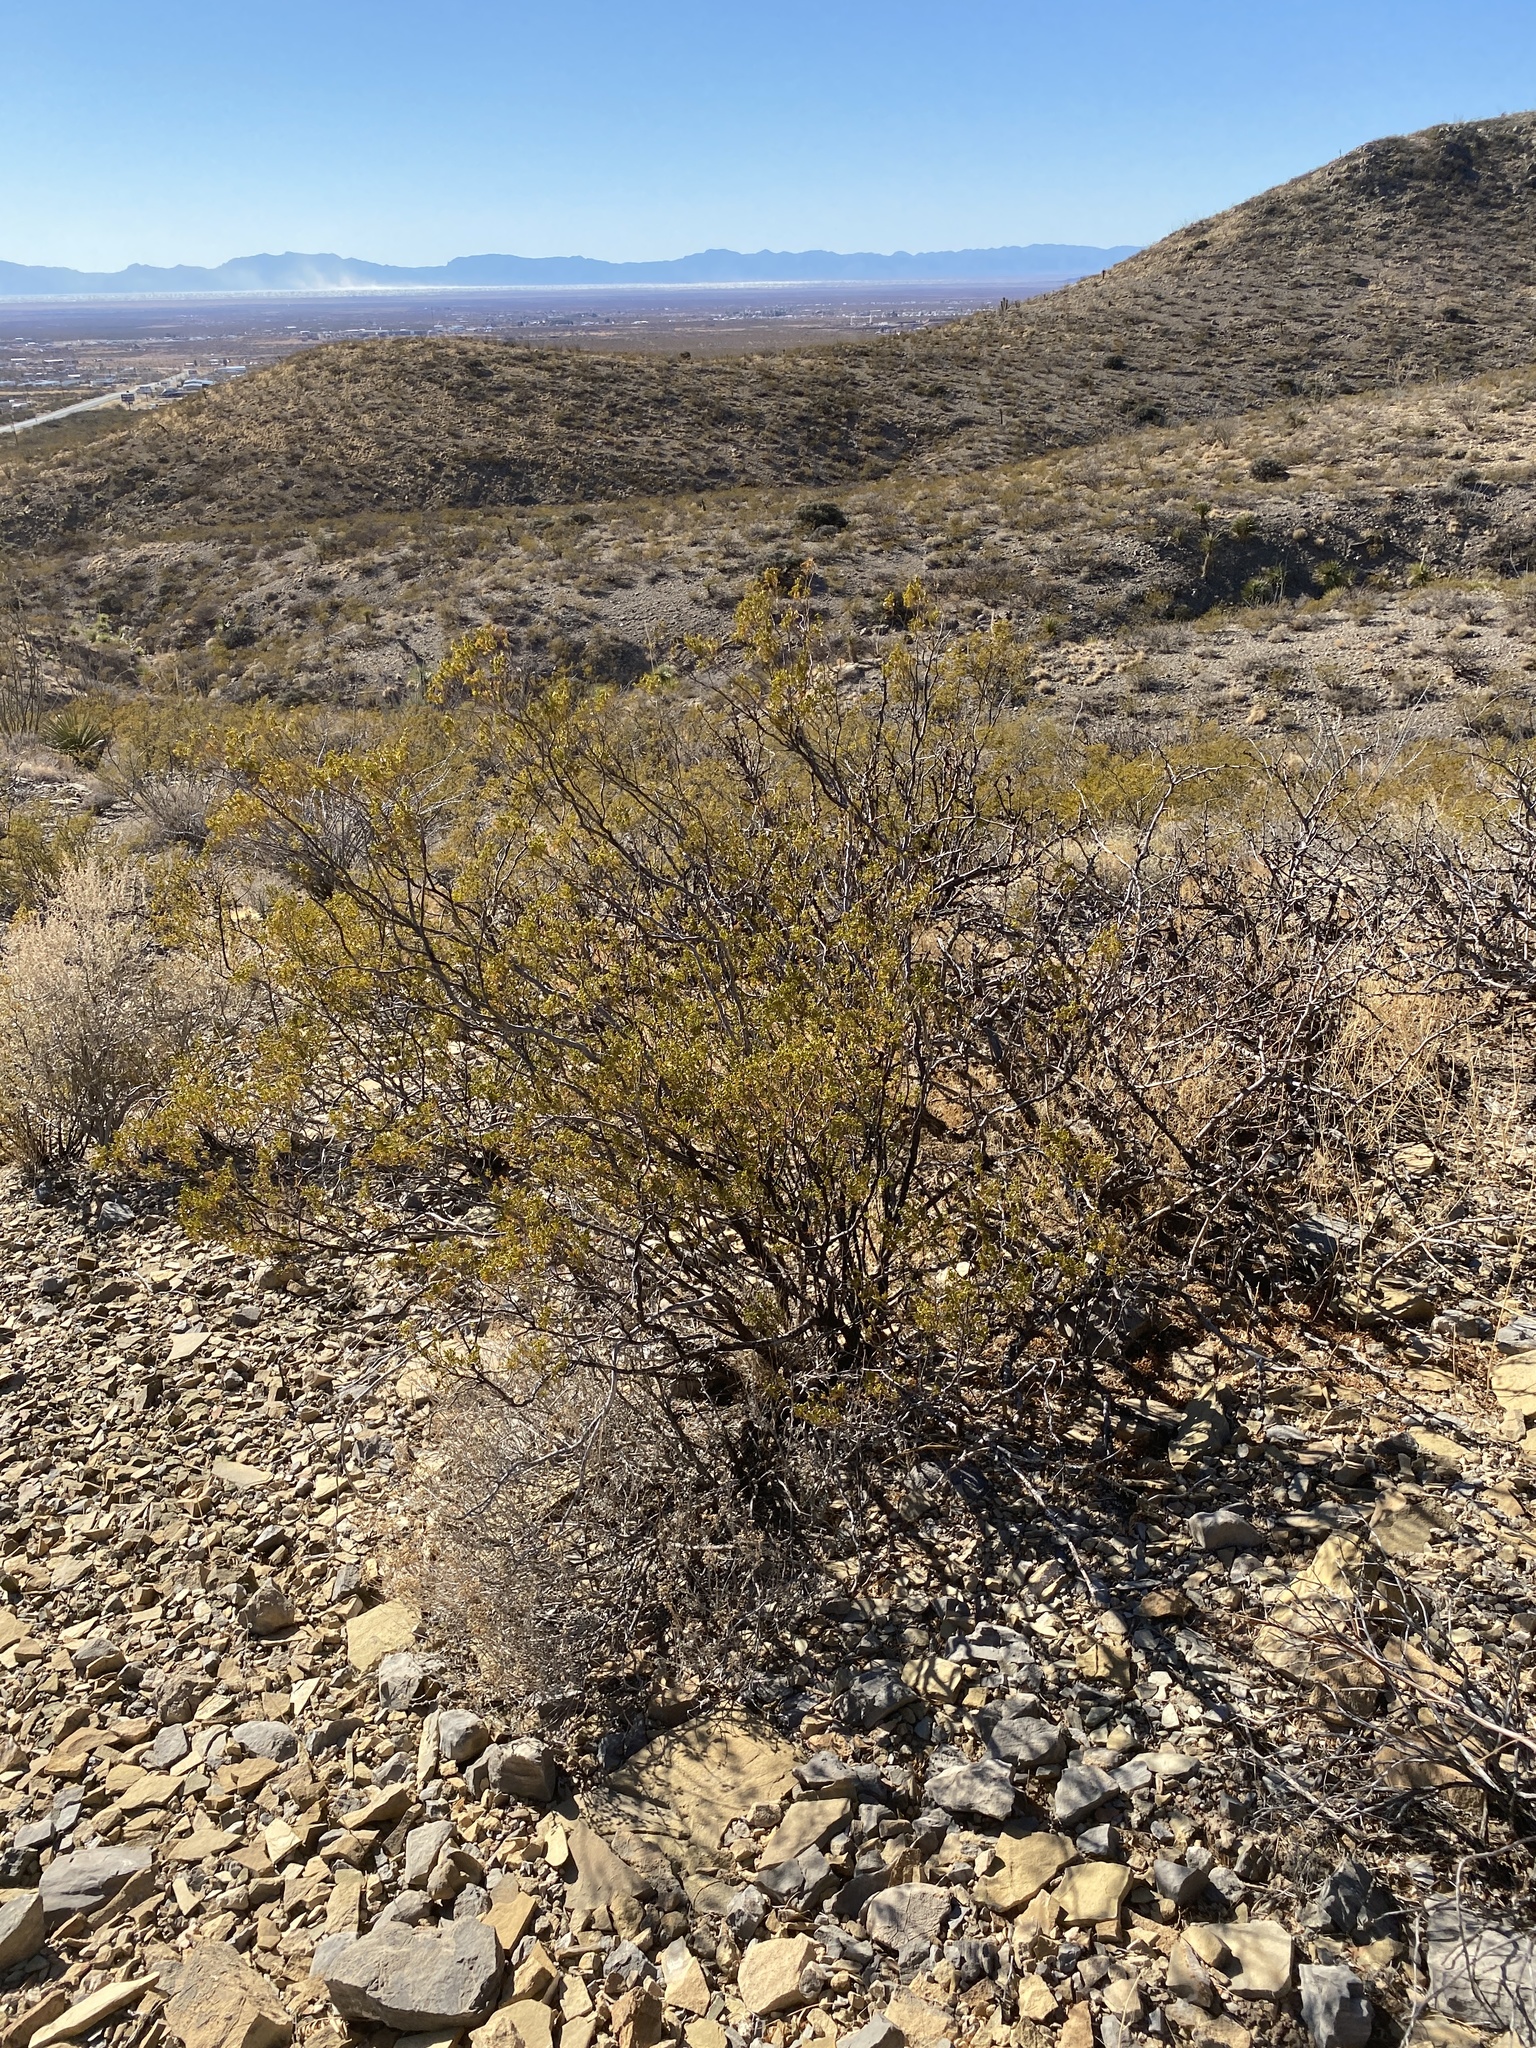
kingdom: Plantae
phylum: Tracheophyta
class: Magnoliopsida
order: Zygophyllales
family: Zygophyllaceae
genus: Larrea
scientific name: Larrea tridentata
